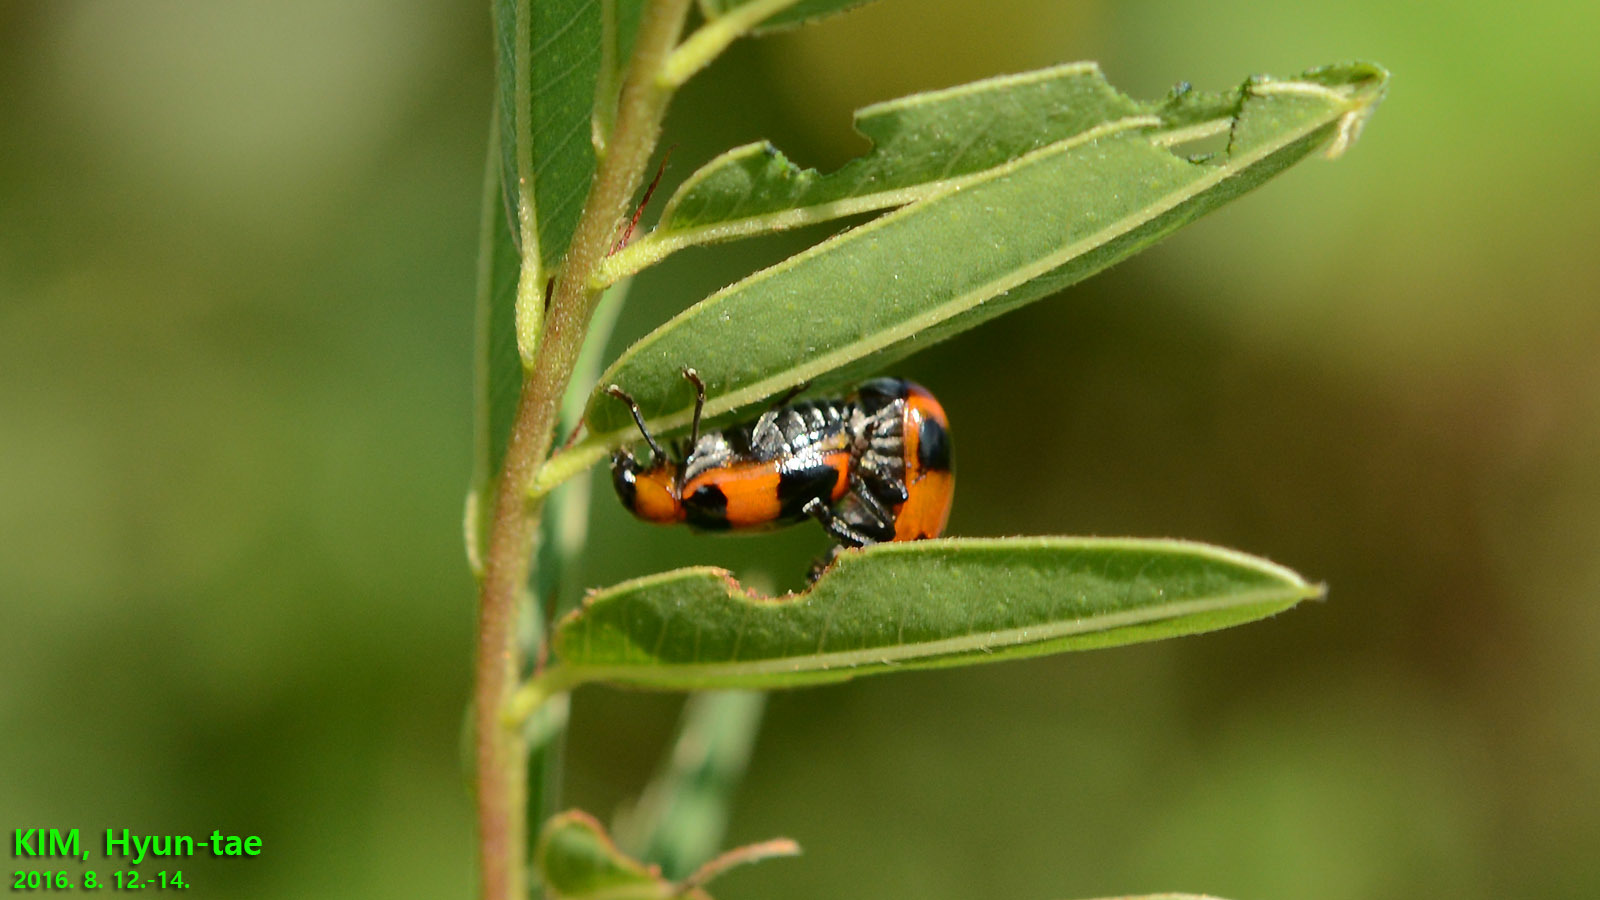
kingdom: Animalia
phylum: Arthropoda
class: Insecta
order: Coleoptera
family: Chrysomelidae
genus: Physosmaragdina
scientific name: Physosmaragdina nigrifrons
